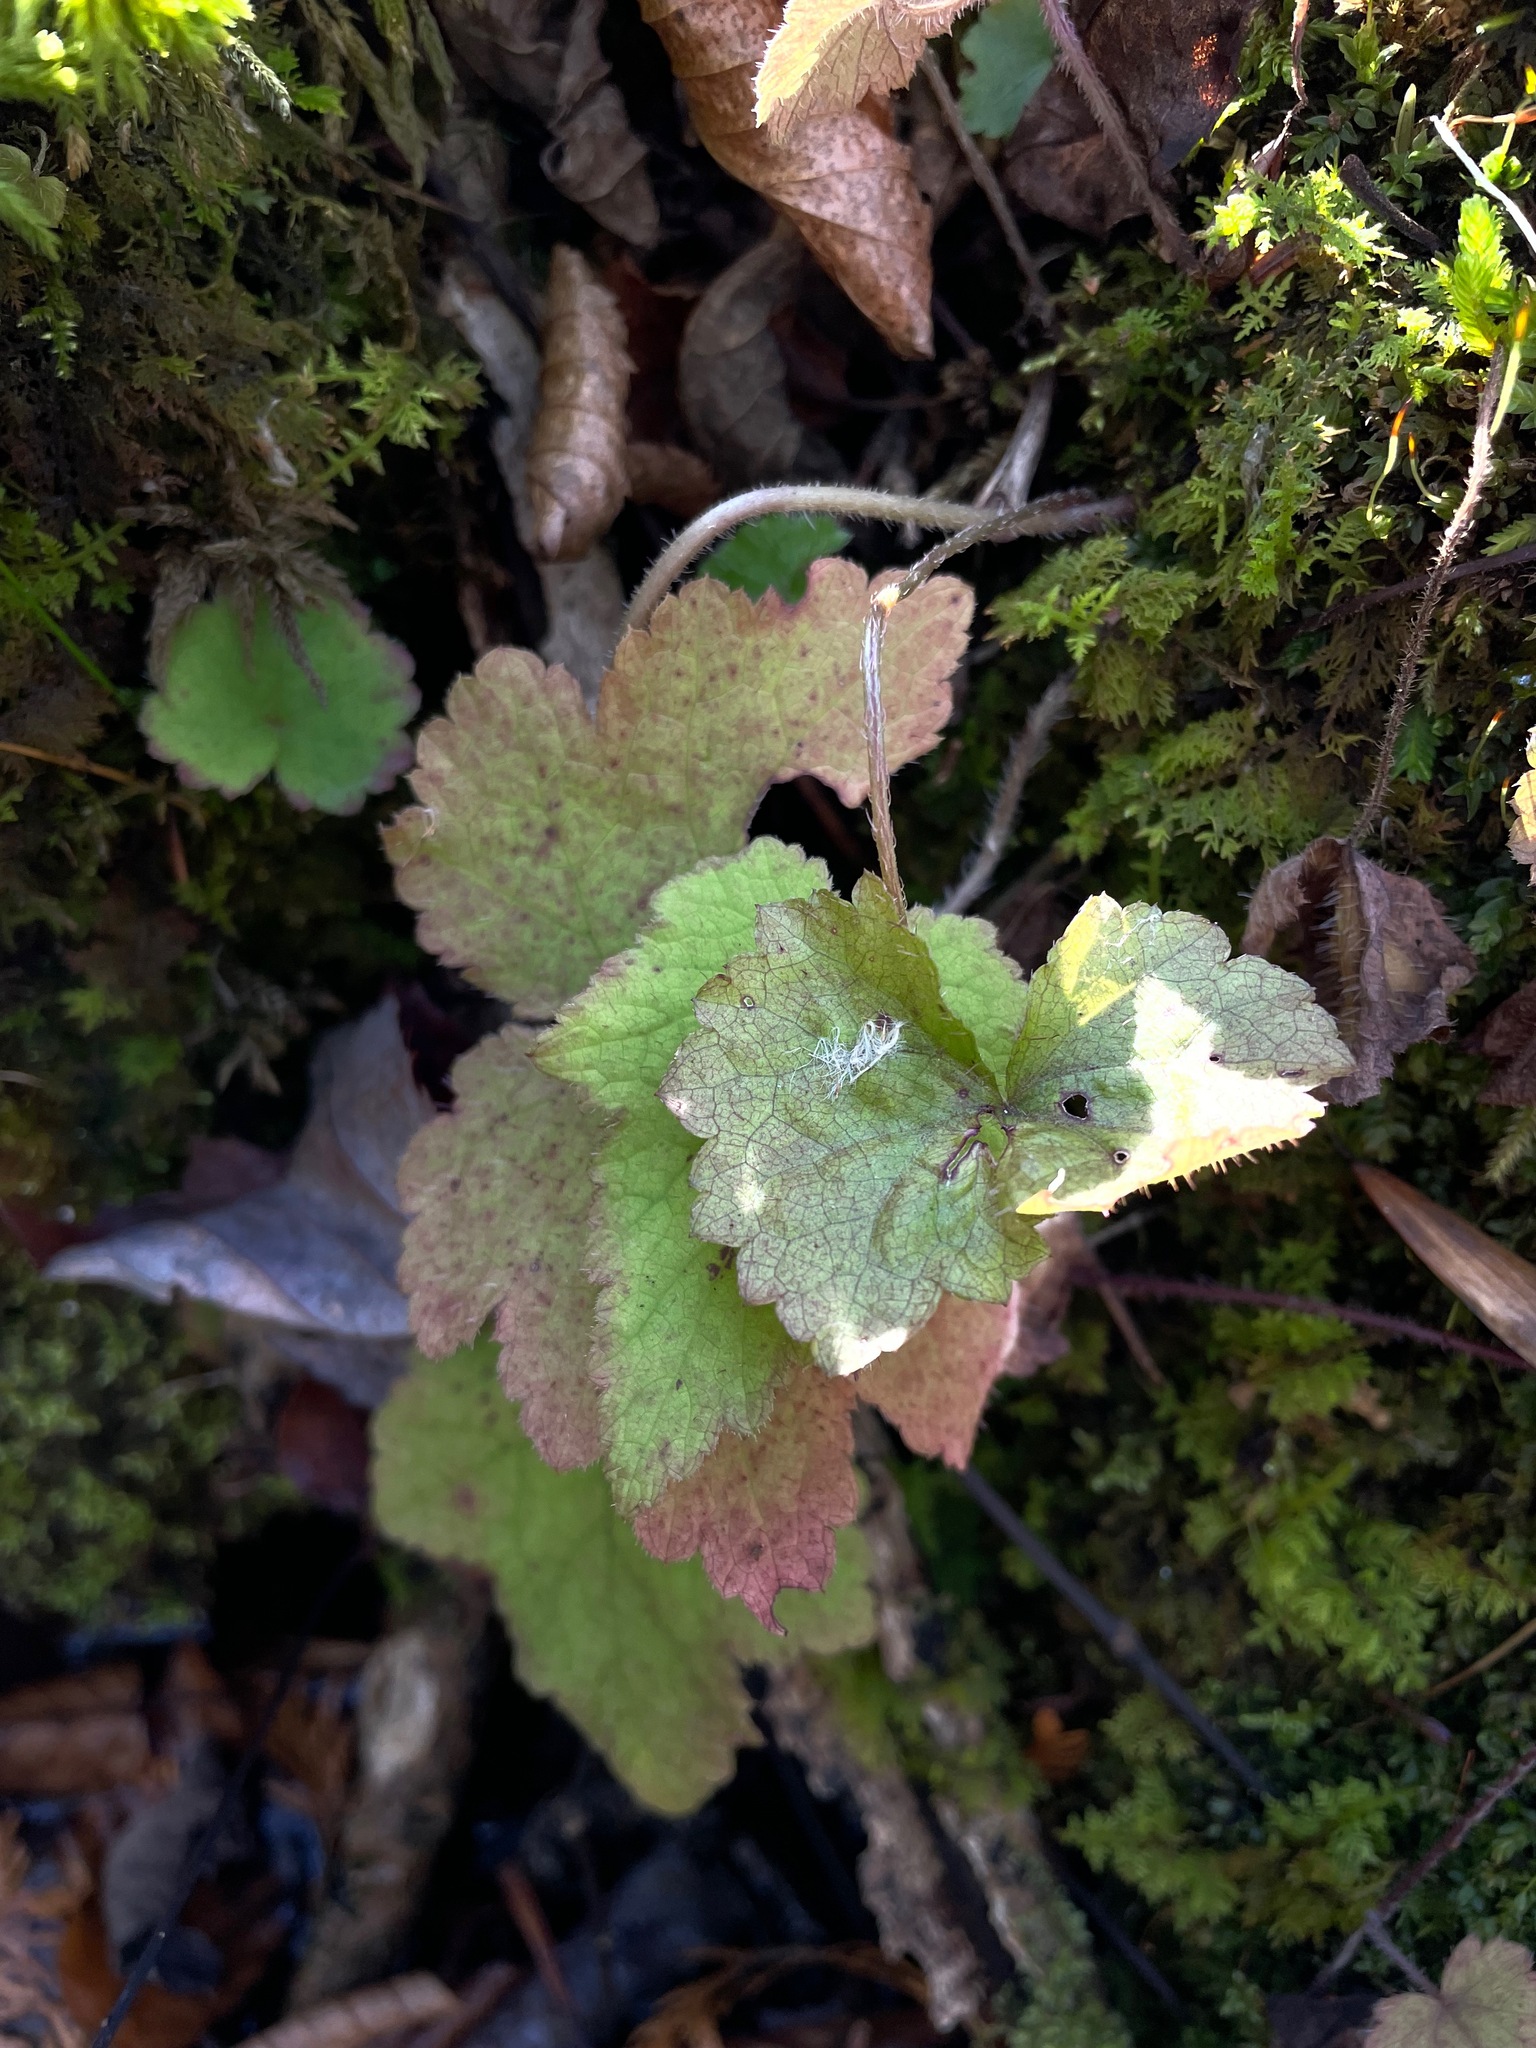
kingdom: Plantae
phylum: Tracheophyta
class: Magnoliopsida
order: Saxifragales
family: Saxifragaceae
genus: Tiarella
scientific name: Tiarella stolonifera
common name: Stoloniferous foamflower
